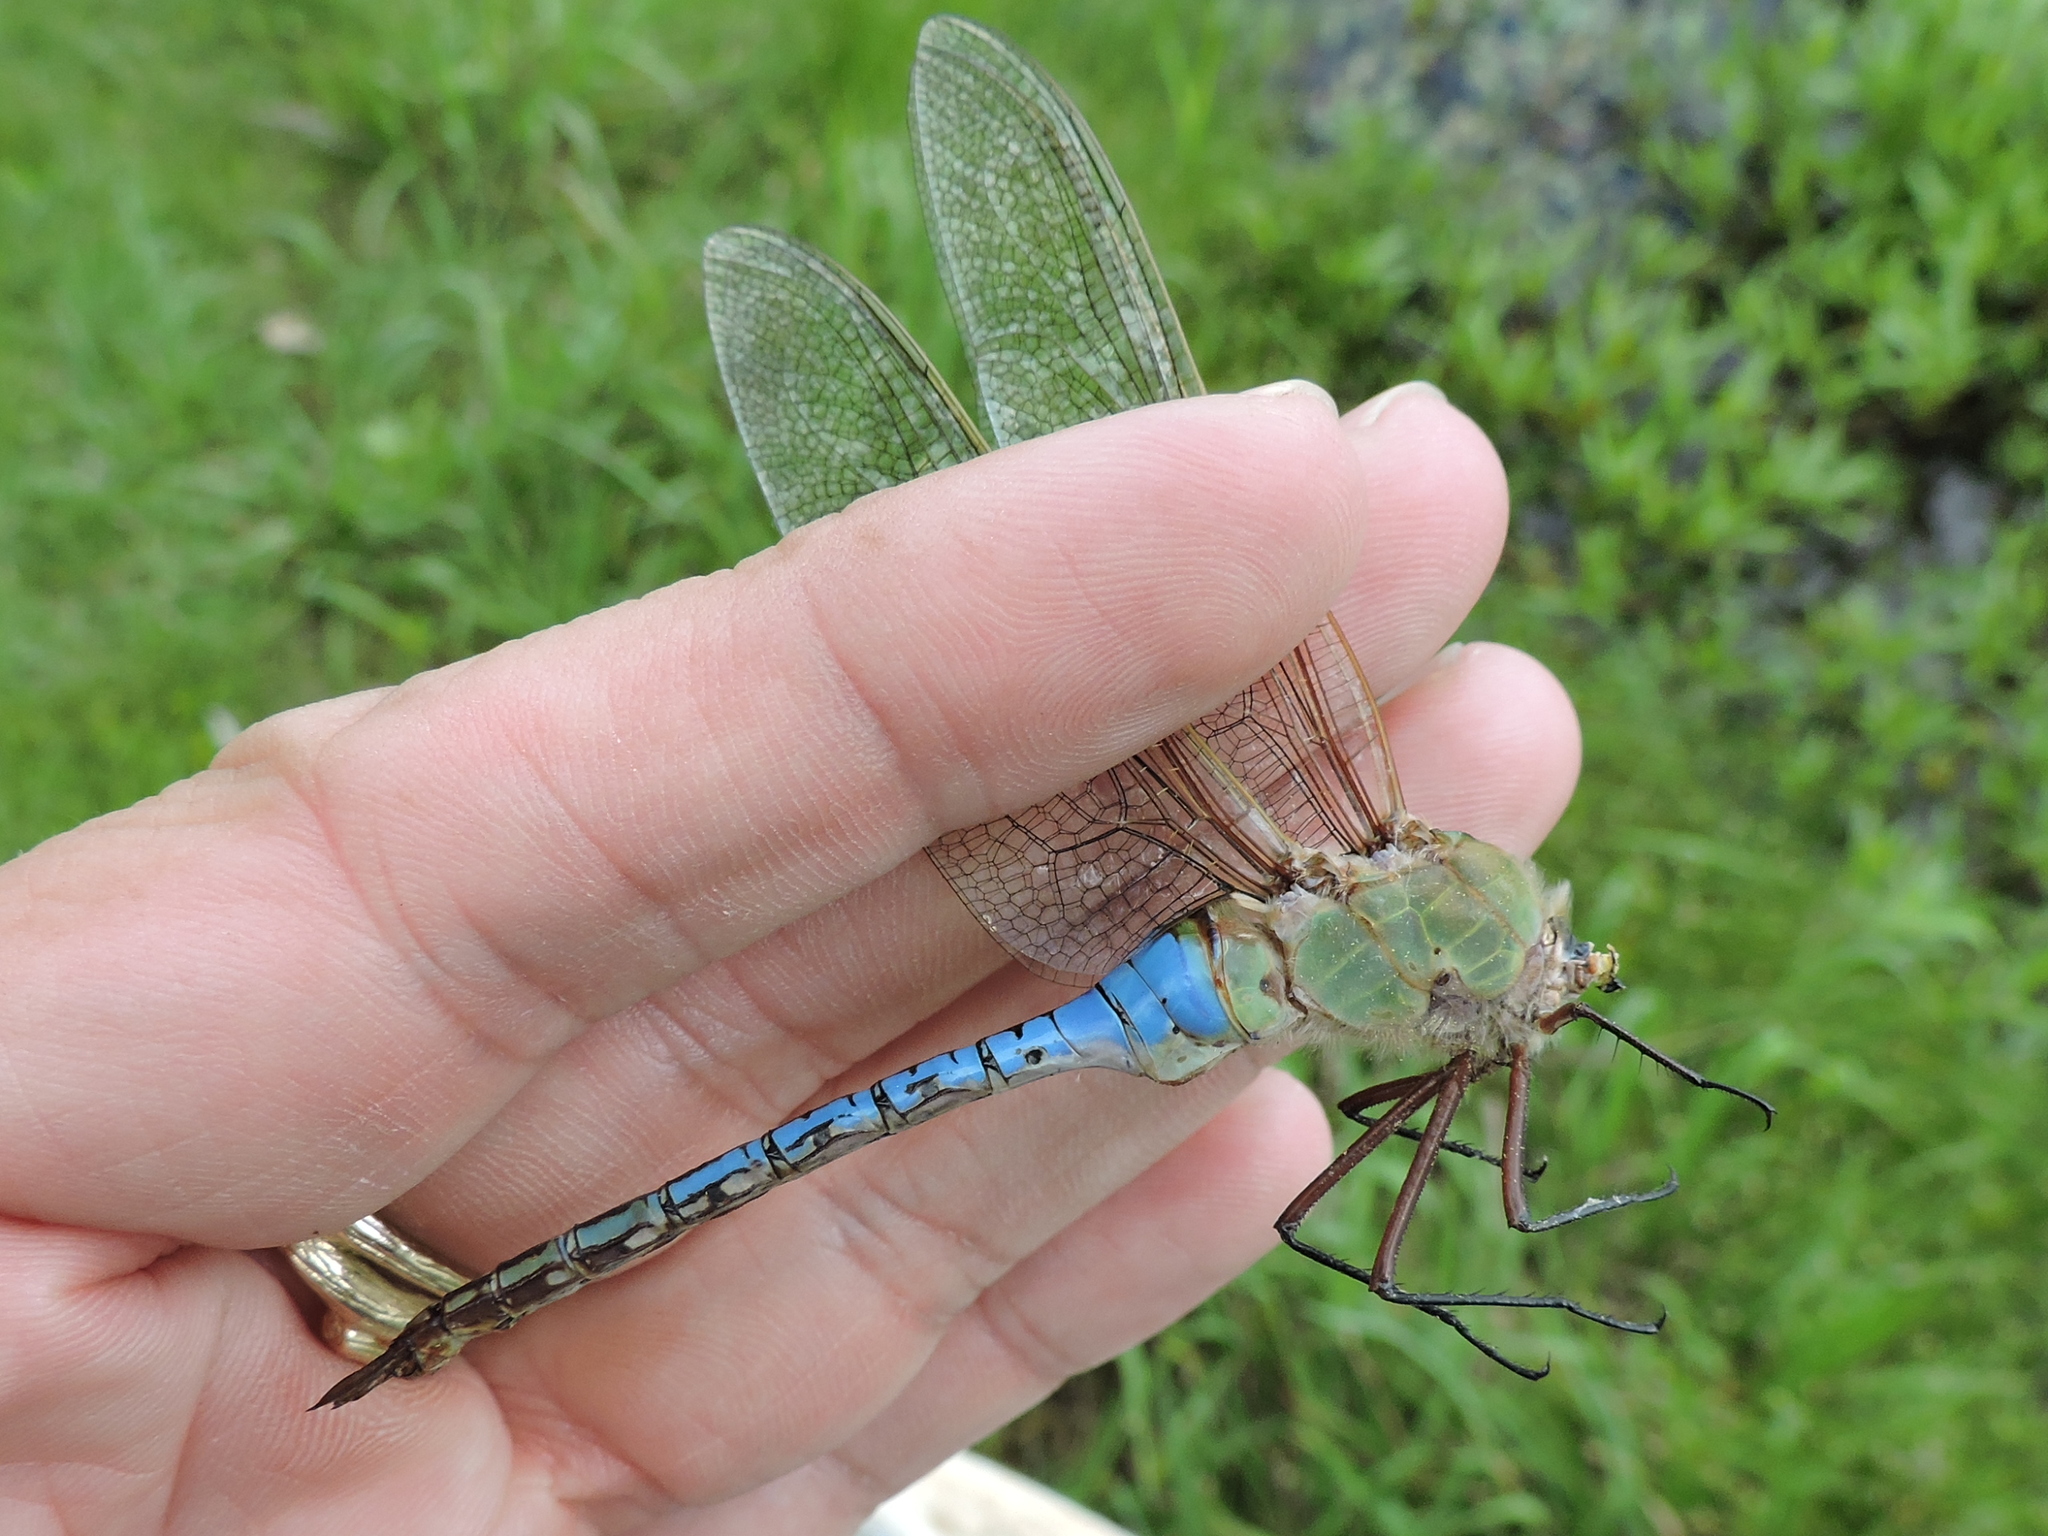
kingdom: Animalia
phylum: Arthropoda
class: Insecta
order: Odonata
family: Aeshnidae
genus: Anax
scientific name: Anax junius
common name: Common green darner
